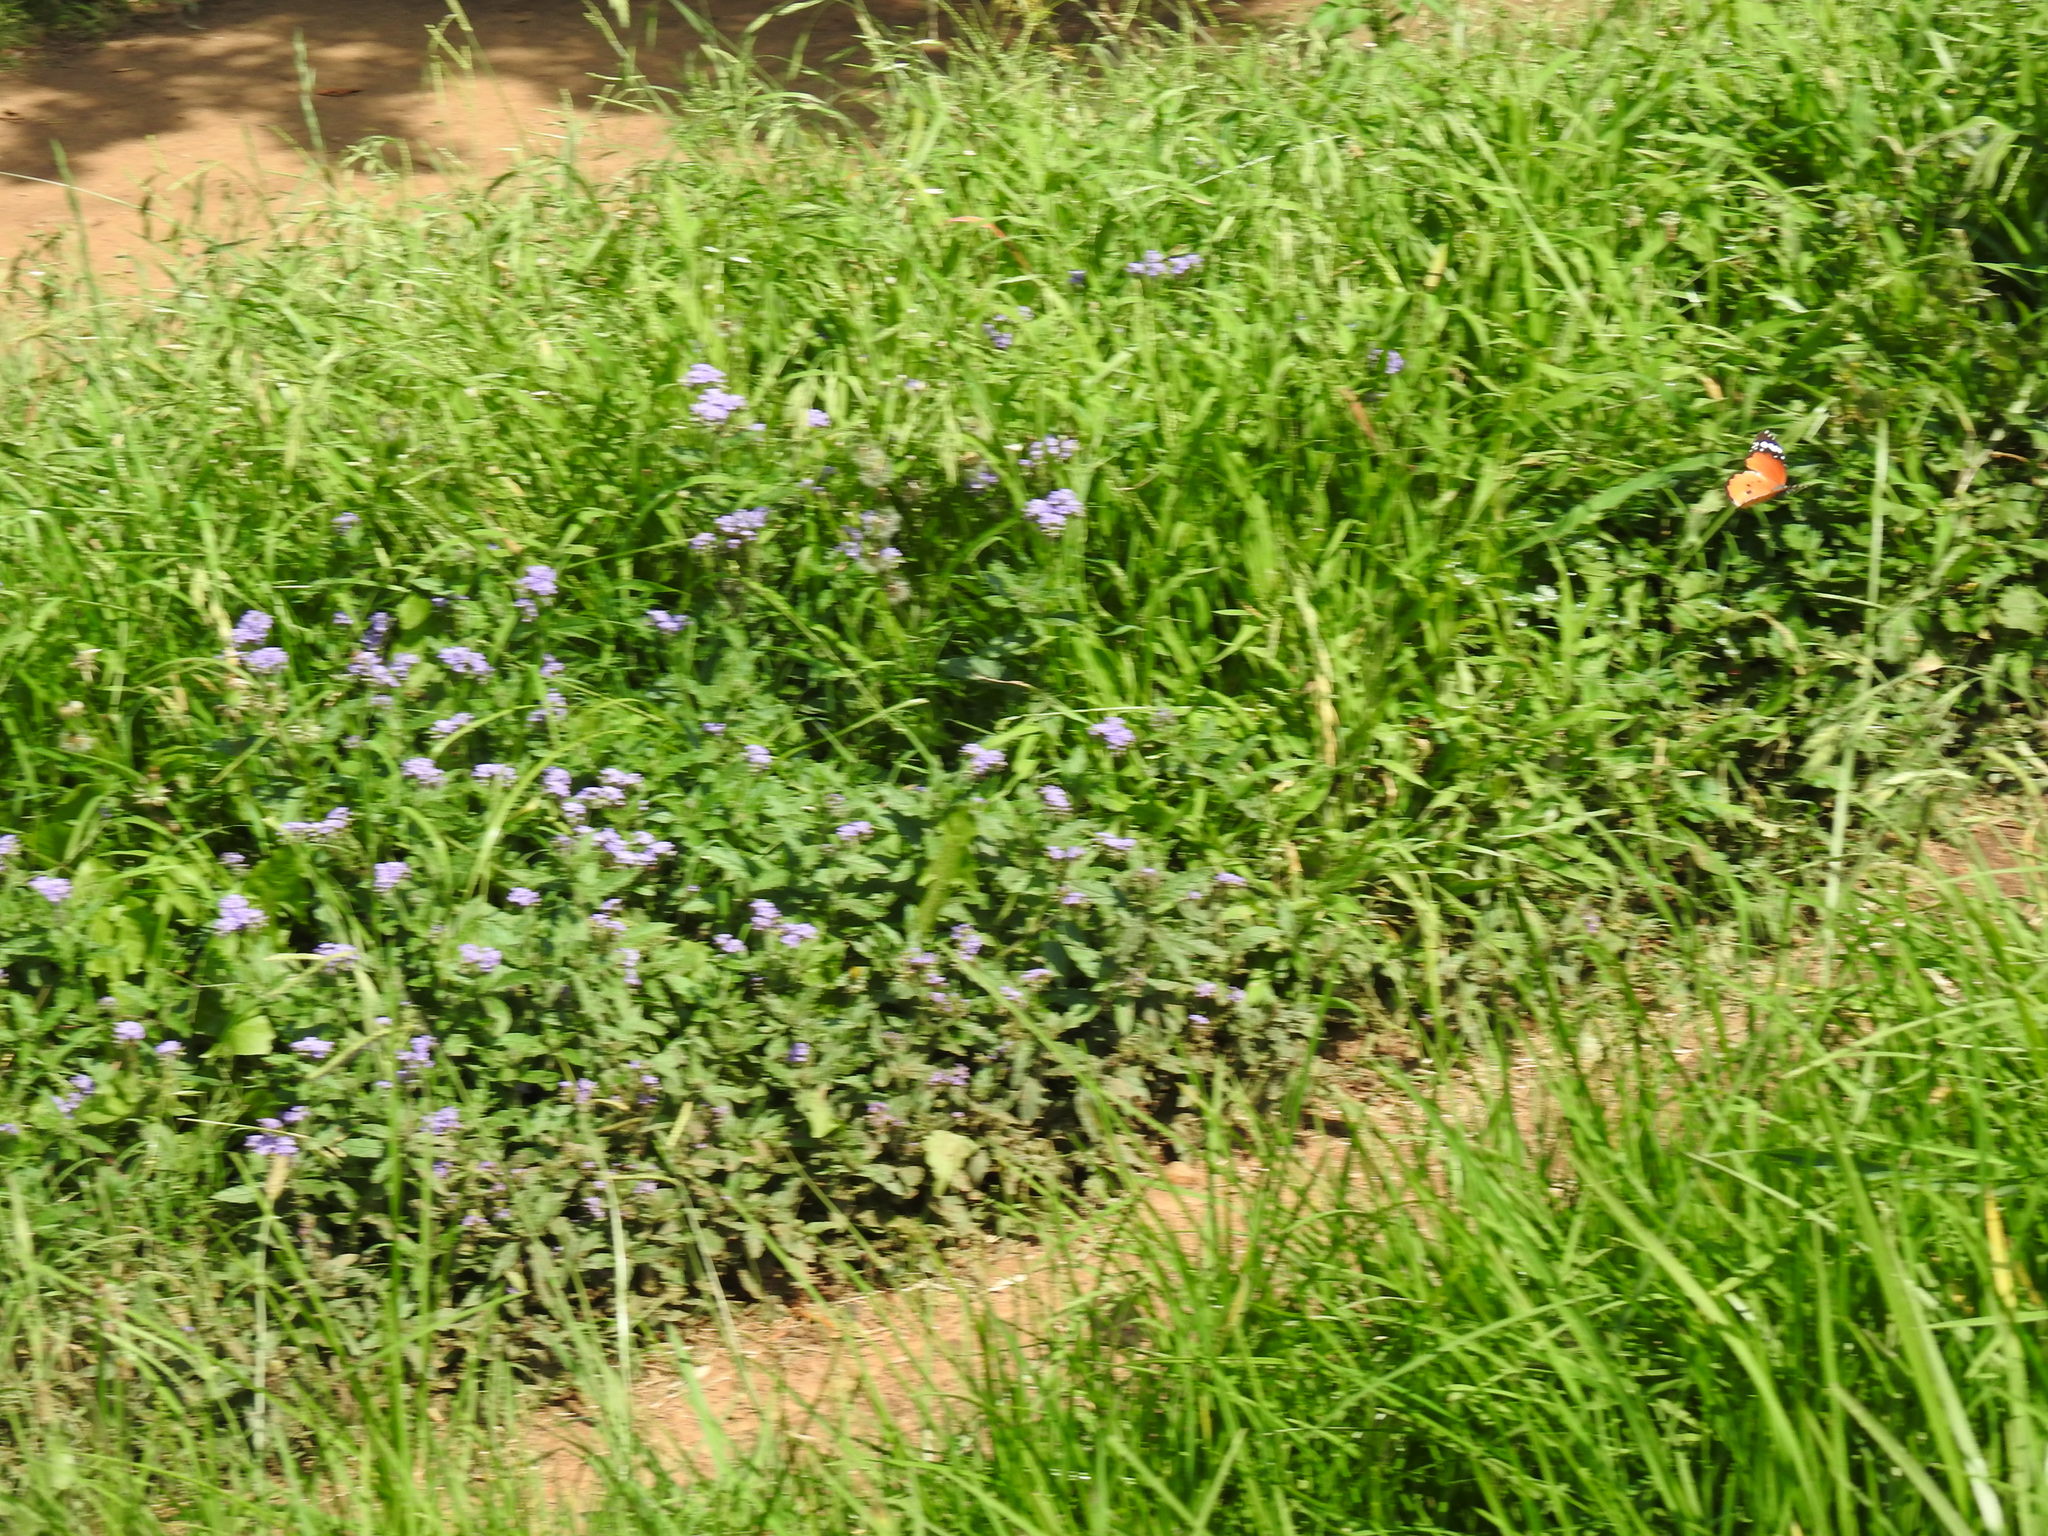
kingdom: Animalia
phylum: Arthropoda
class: Insecta
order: Lepidoptera
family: Nymphalidae
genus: Danaus
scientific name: Danaus chrysippus
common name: Plain tiger
